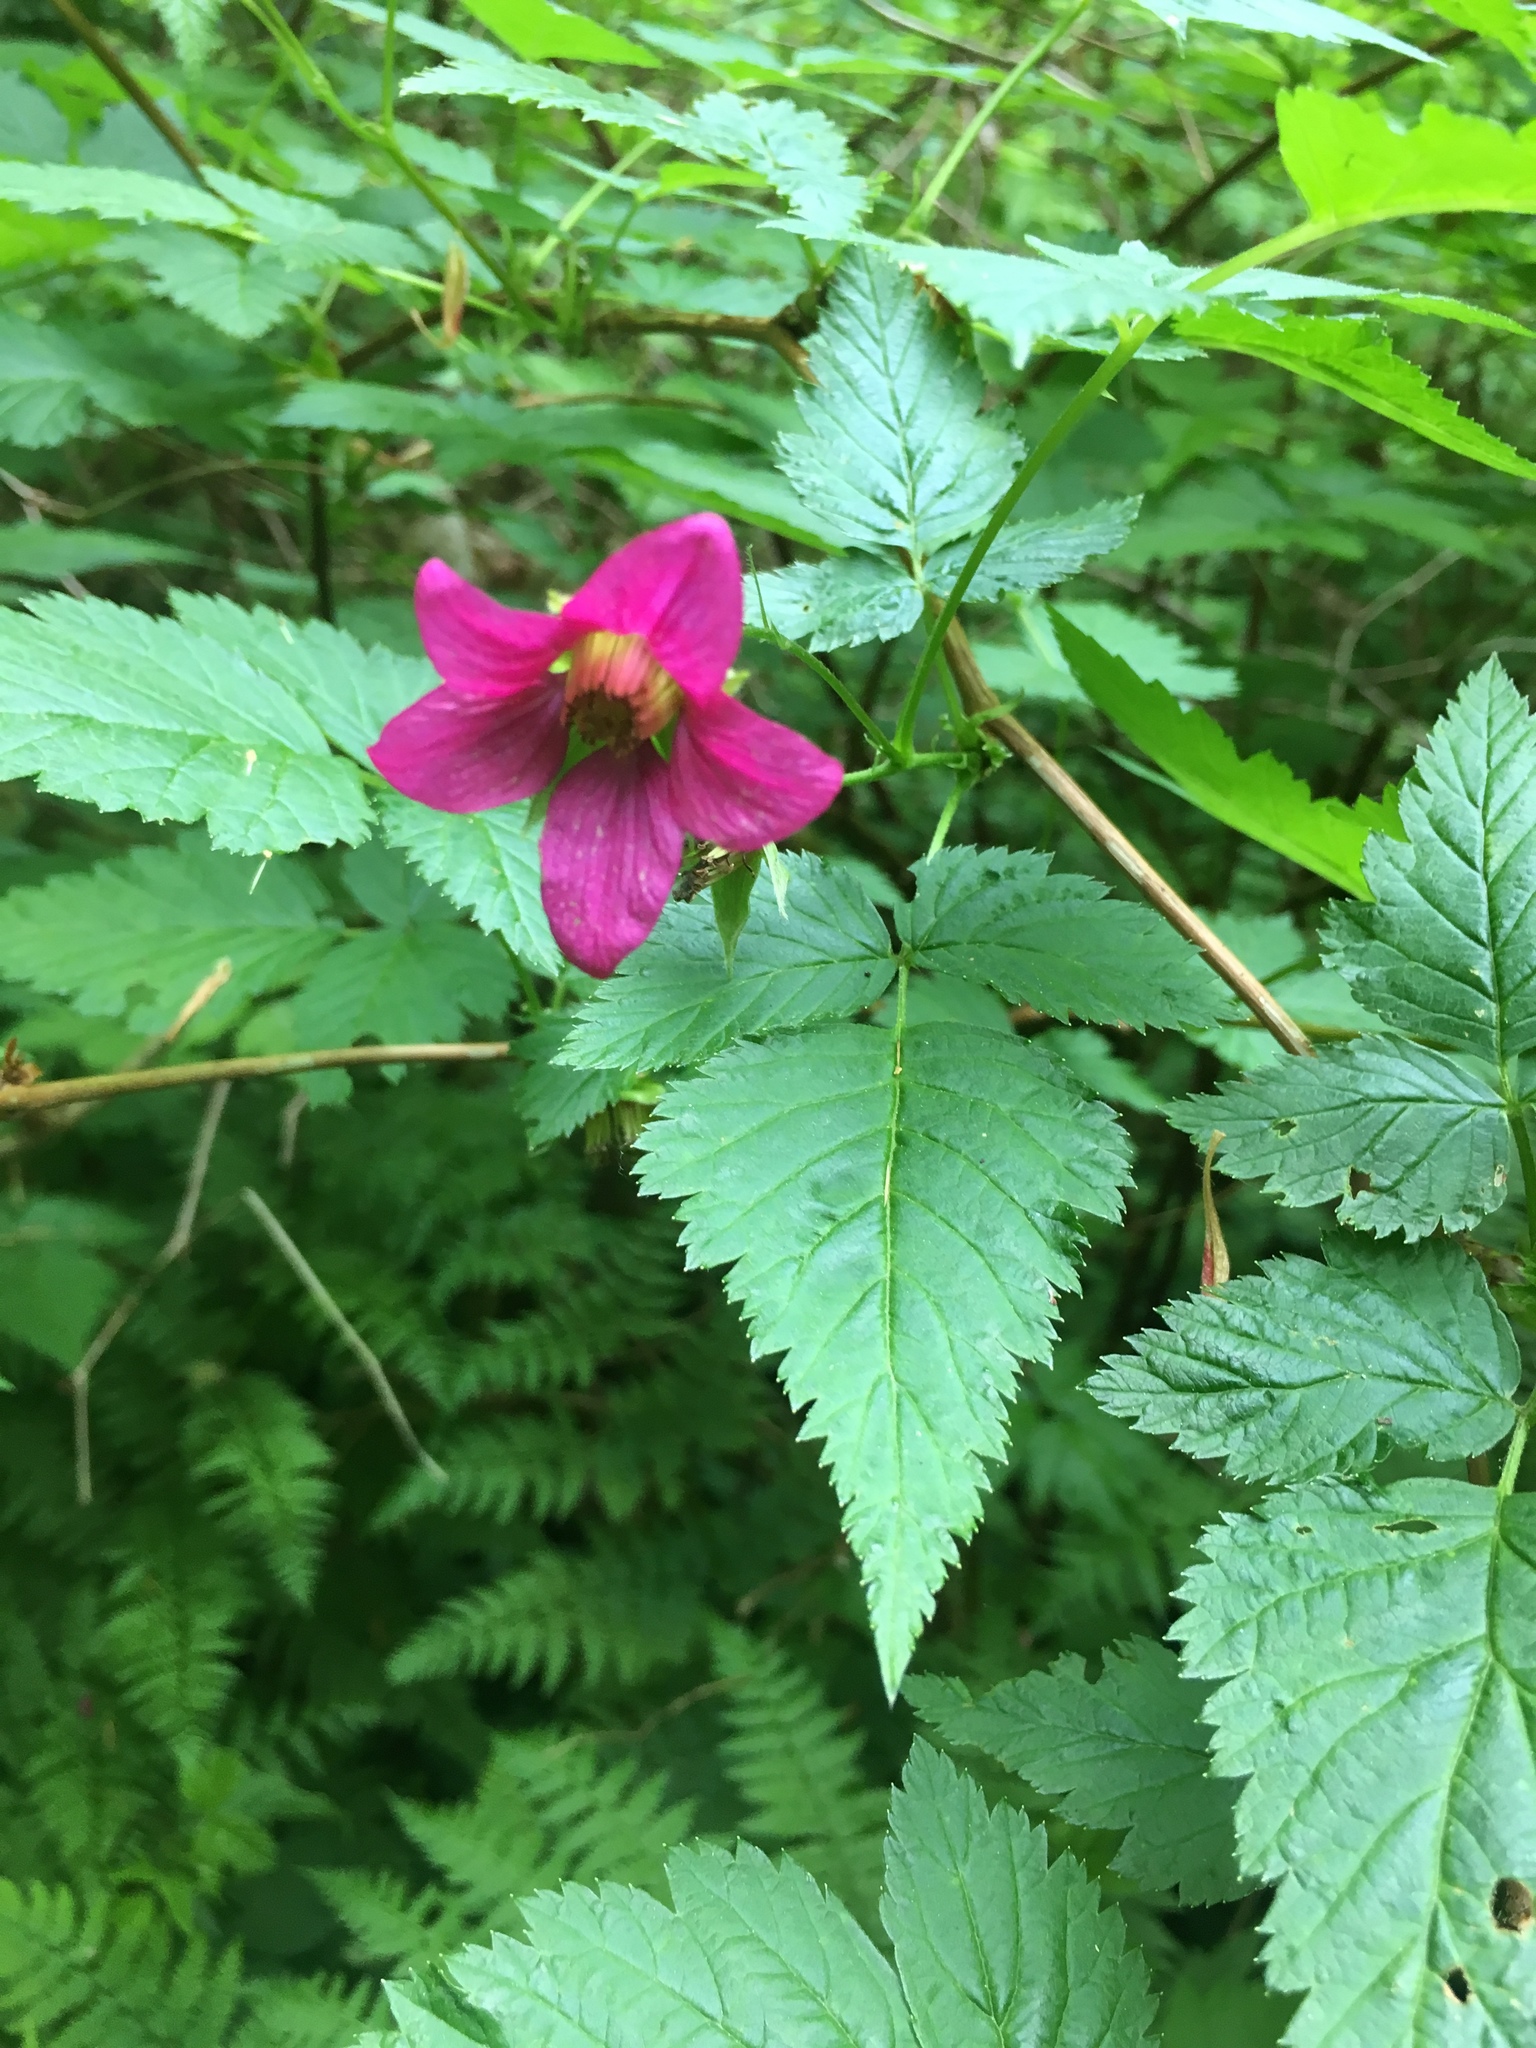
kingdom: Plantae
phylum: Tracheophyta
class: Magnoliopsida
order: Rosales
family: Rosaceae
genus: Rubus
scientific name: Rubus spectabilis
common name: Salmonberry
